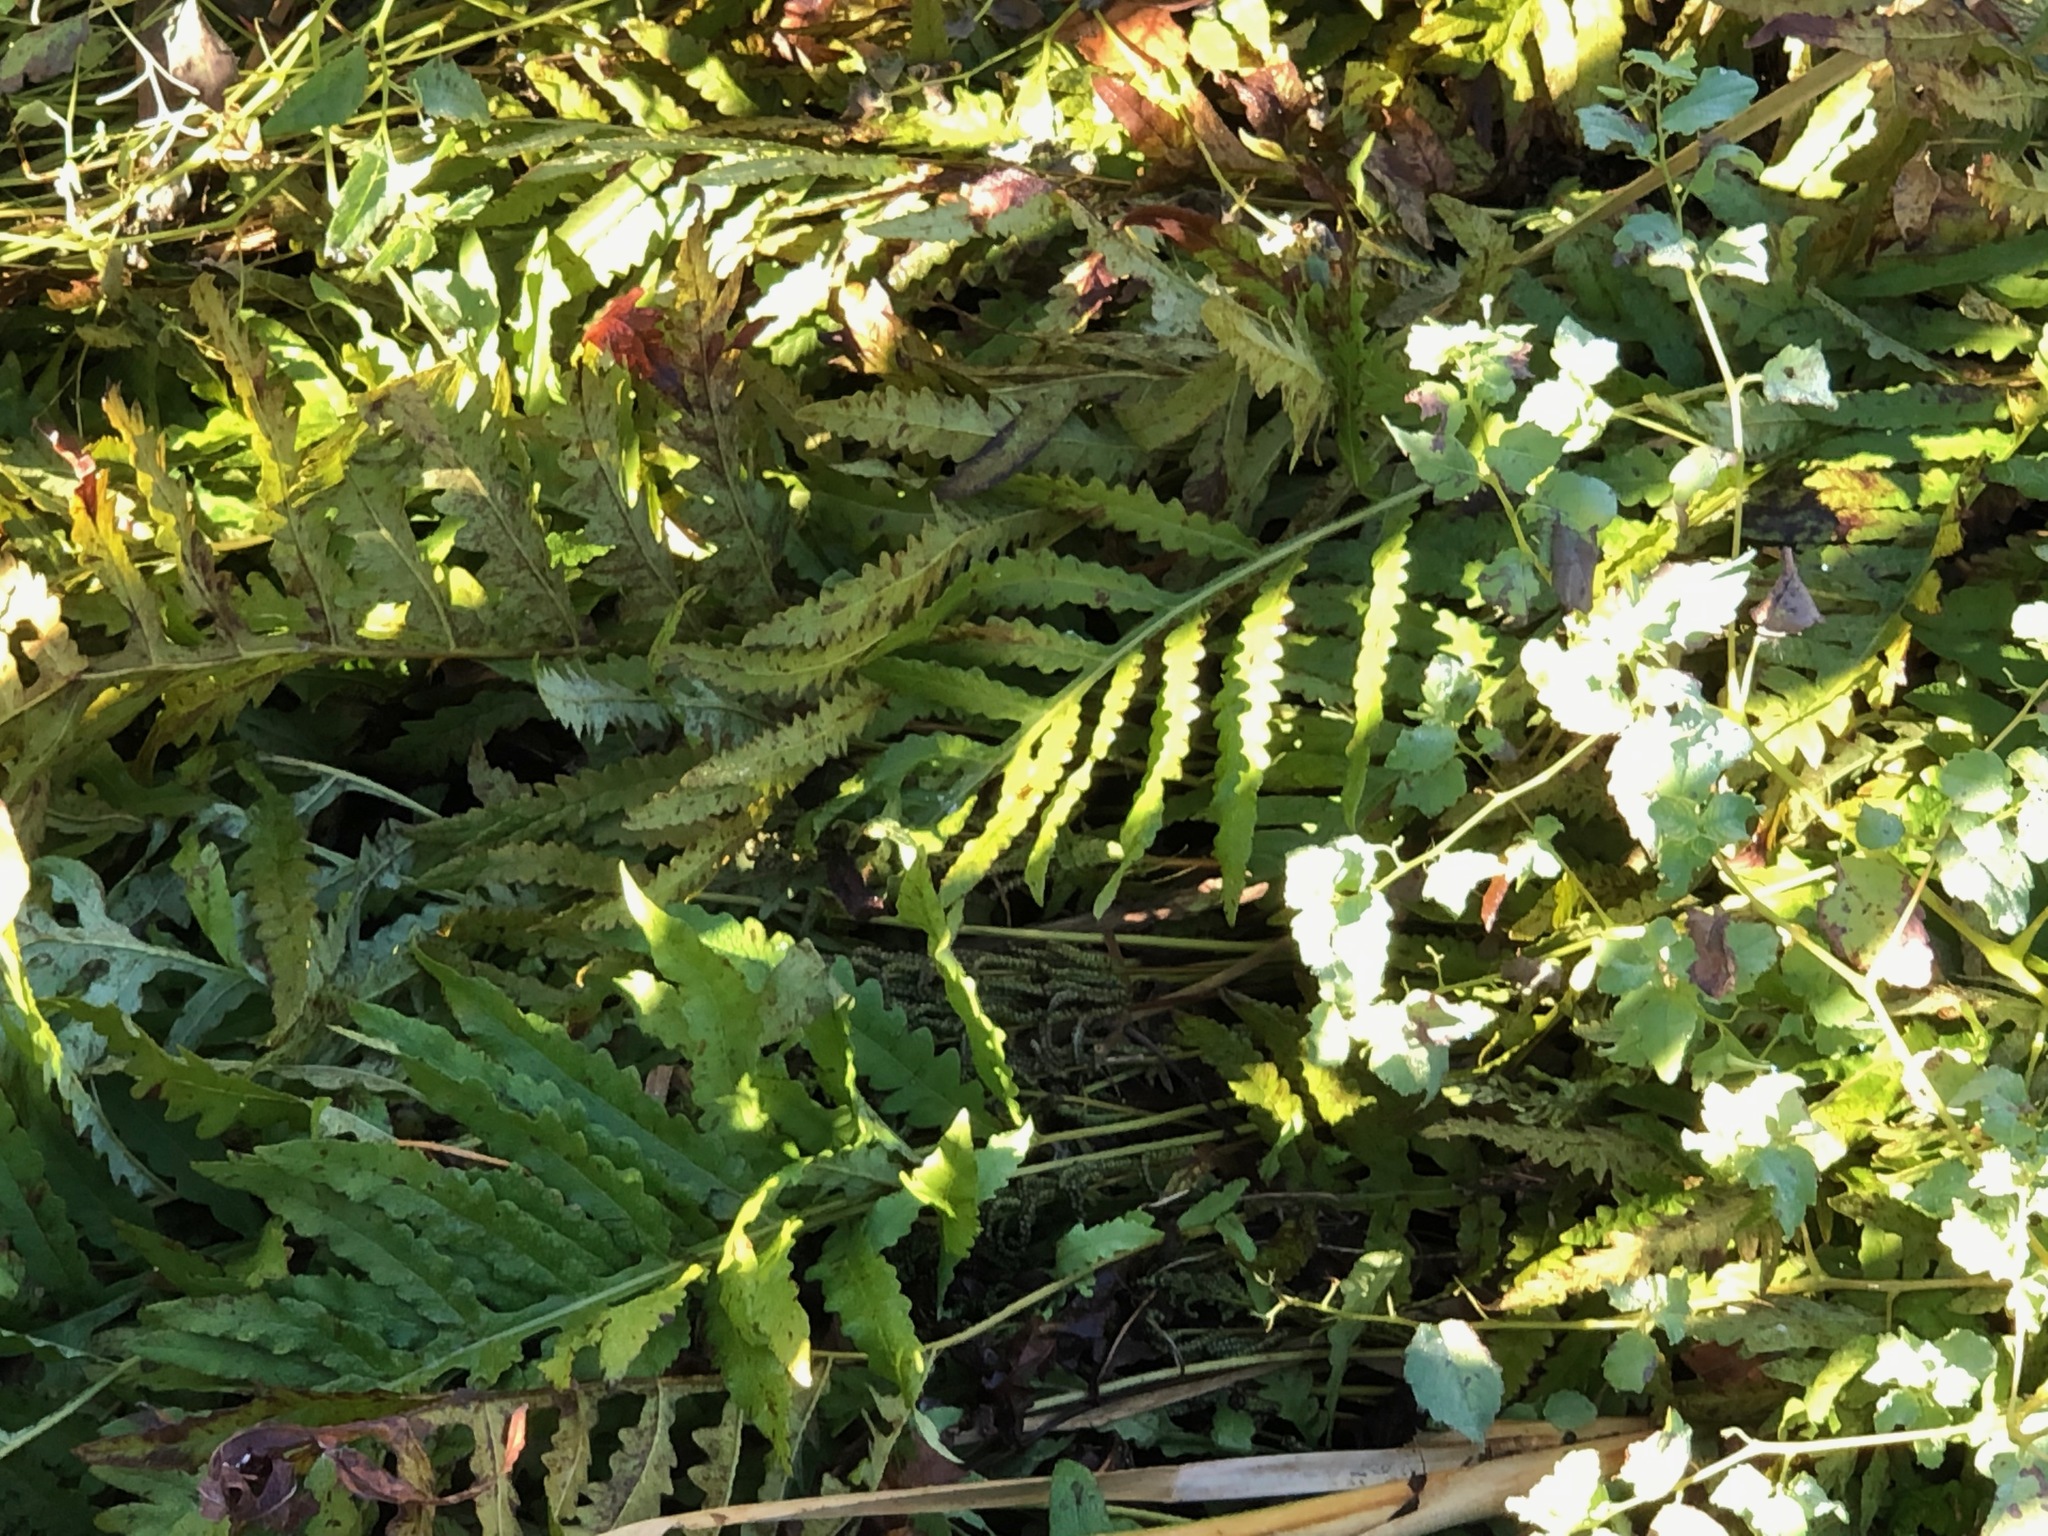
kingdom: Plantae
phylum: Tracheophyta
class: Polypodiopsida
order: Polypodiales
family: Onocleaceae
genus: Onoclea
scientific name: Onoclea sensibilis
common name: Sensitive fern
